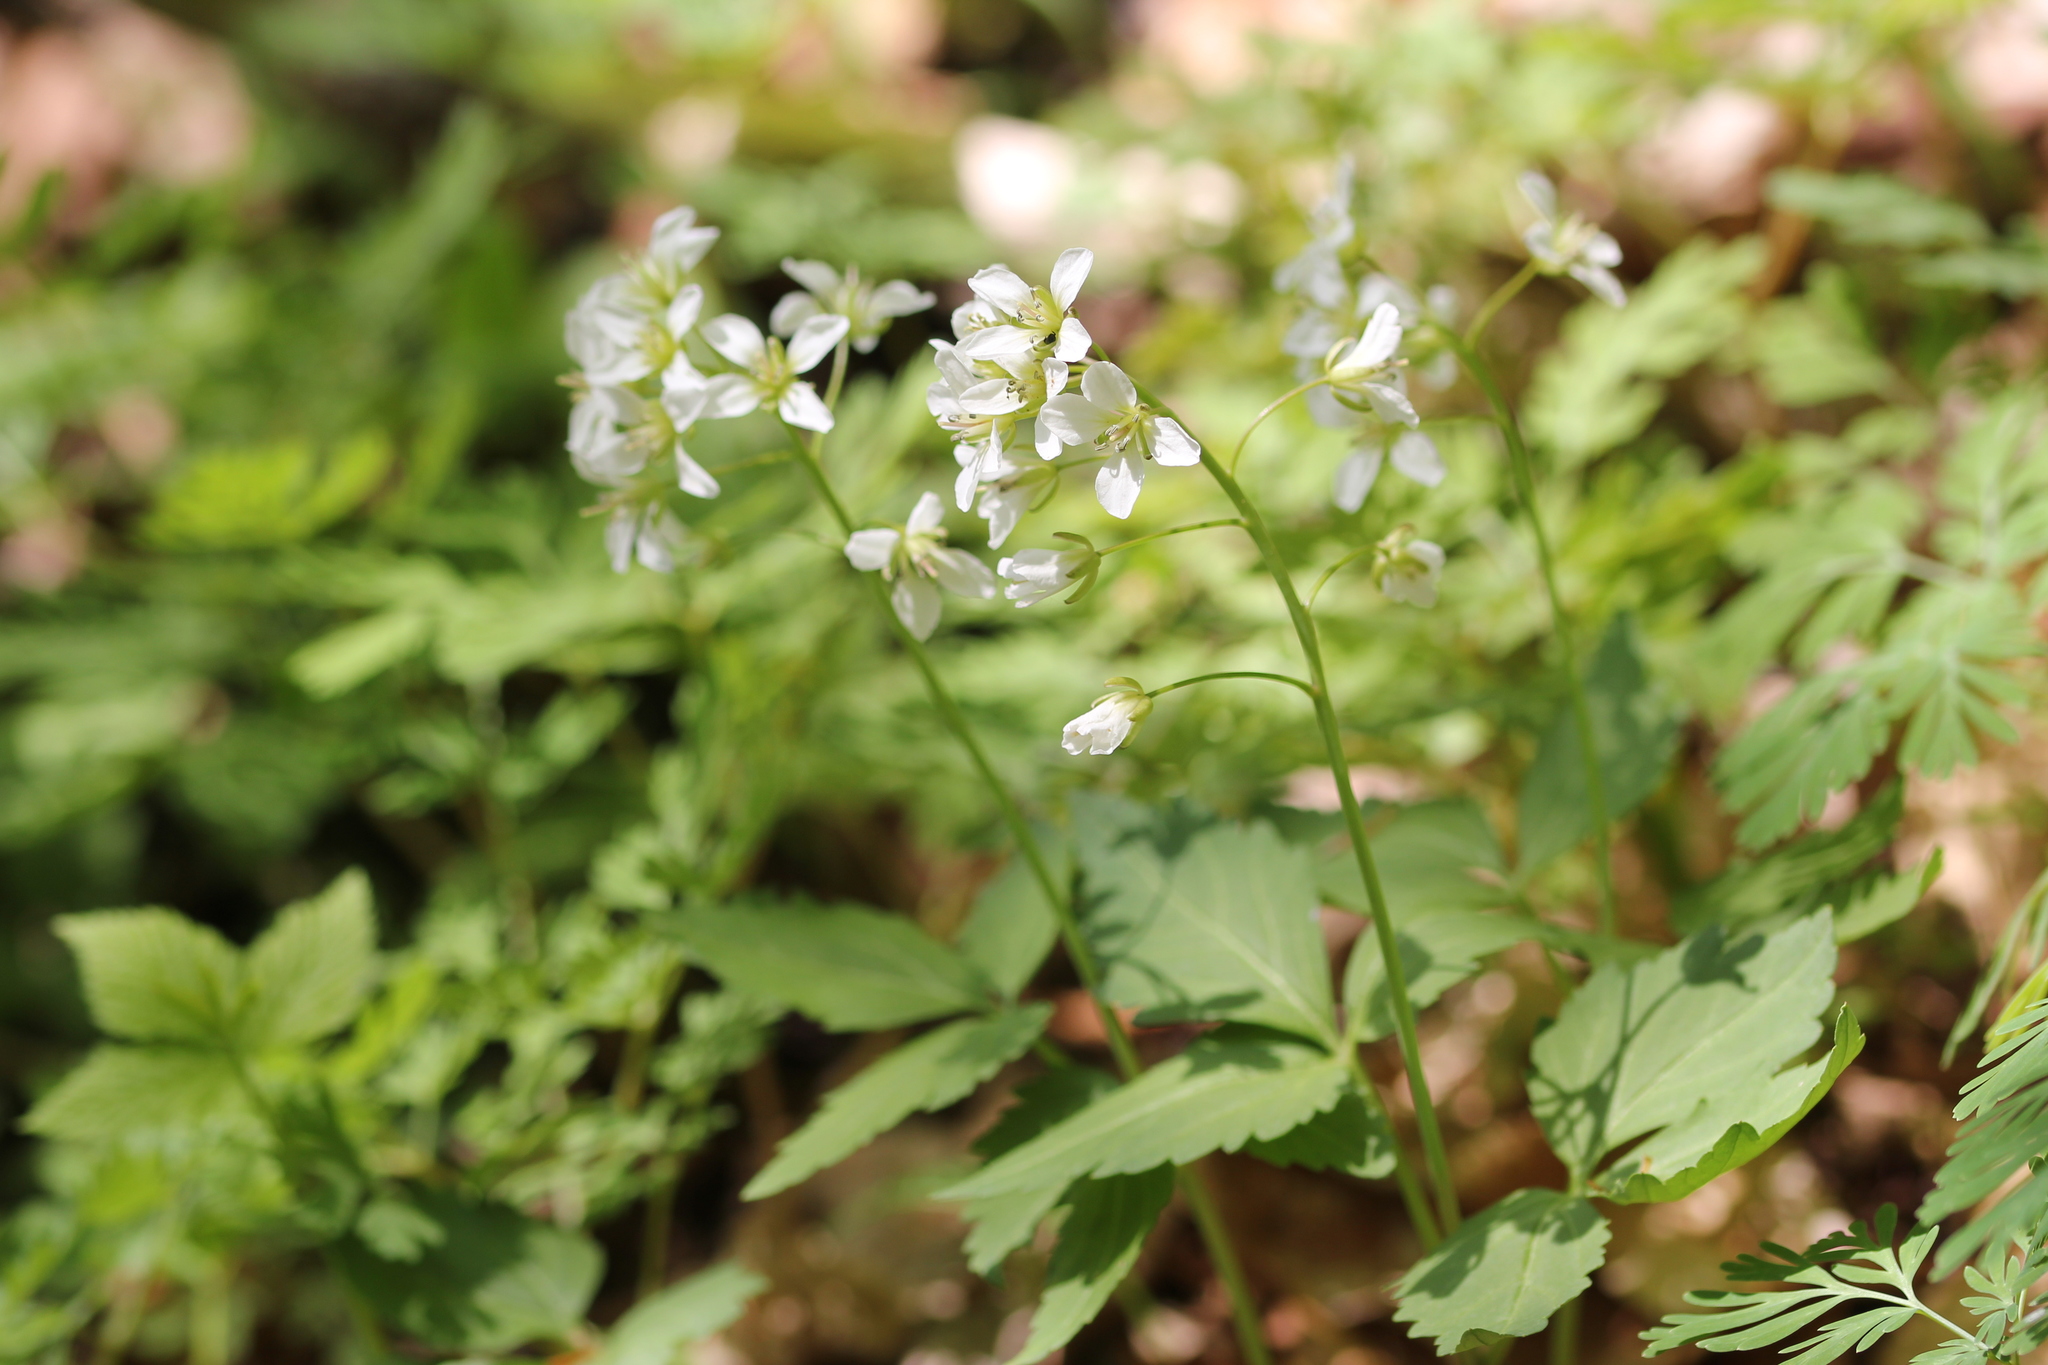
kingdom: Plantae
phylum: Tracheophyta
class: Magnoliopsida
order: Brassicales
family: Brassicaceae
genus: Cardamine
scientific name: Cardamine diphylla
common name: Broad-leaved toothwort
